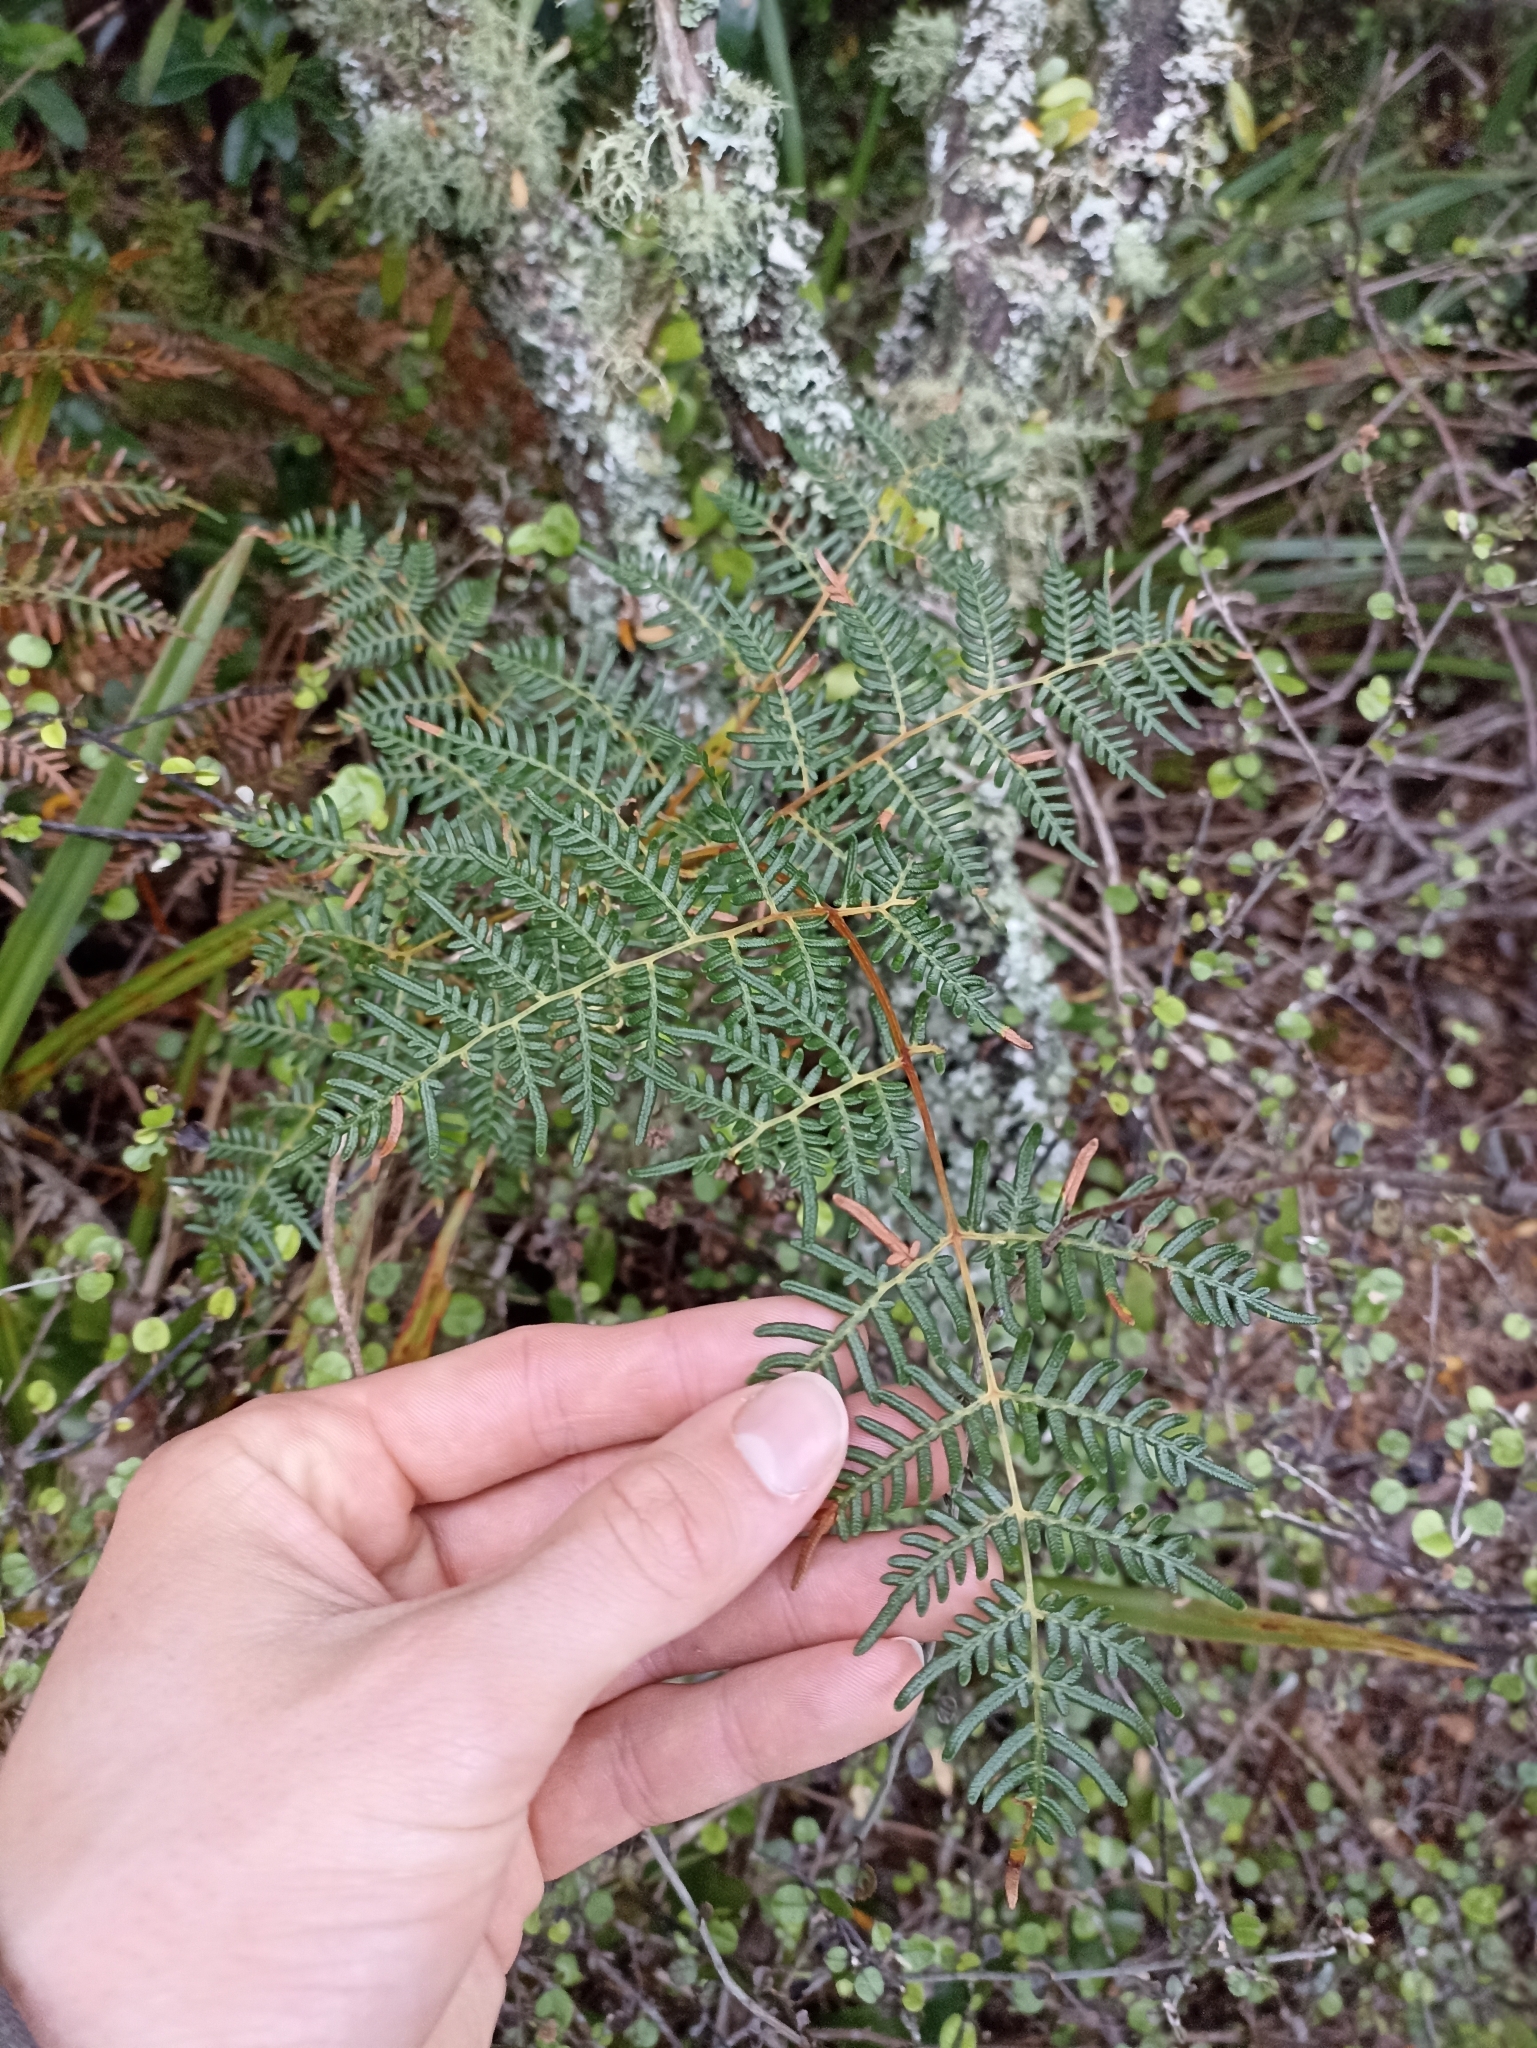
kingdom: Plantae
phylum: Tracheophyta
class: Polypodiopsida
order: Polypodiales
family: Dennstaedtiaceae
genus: Pteridium
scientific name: Pteridium esculentum
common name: Bracken fern
